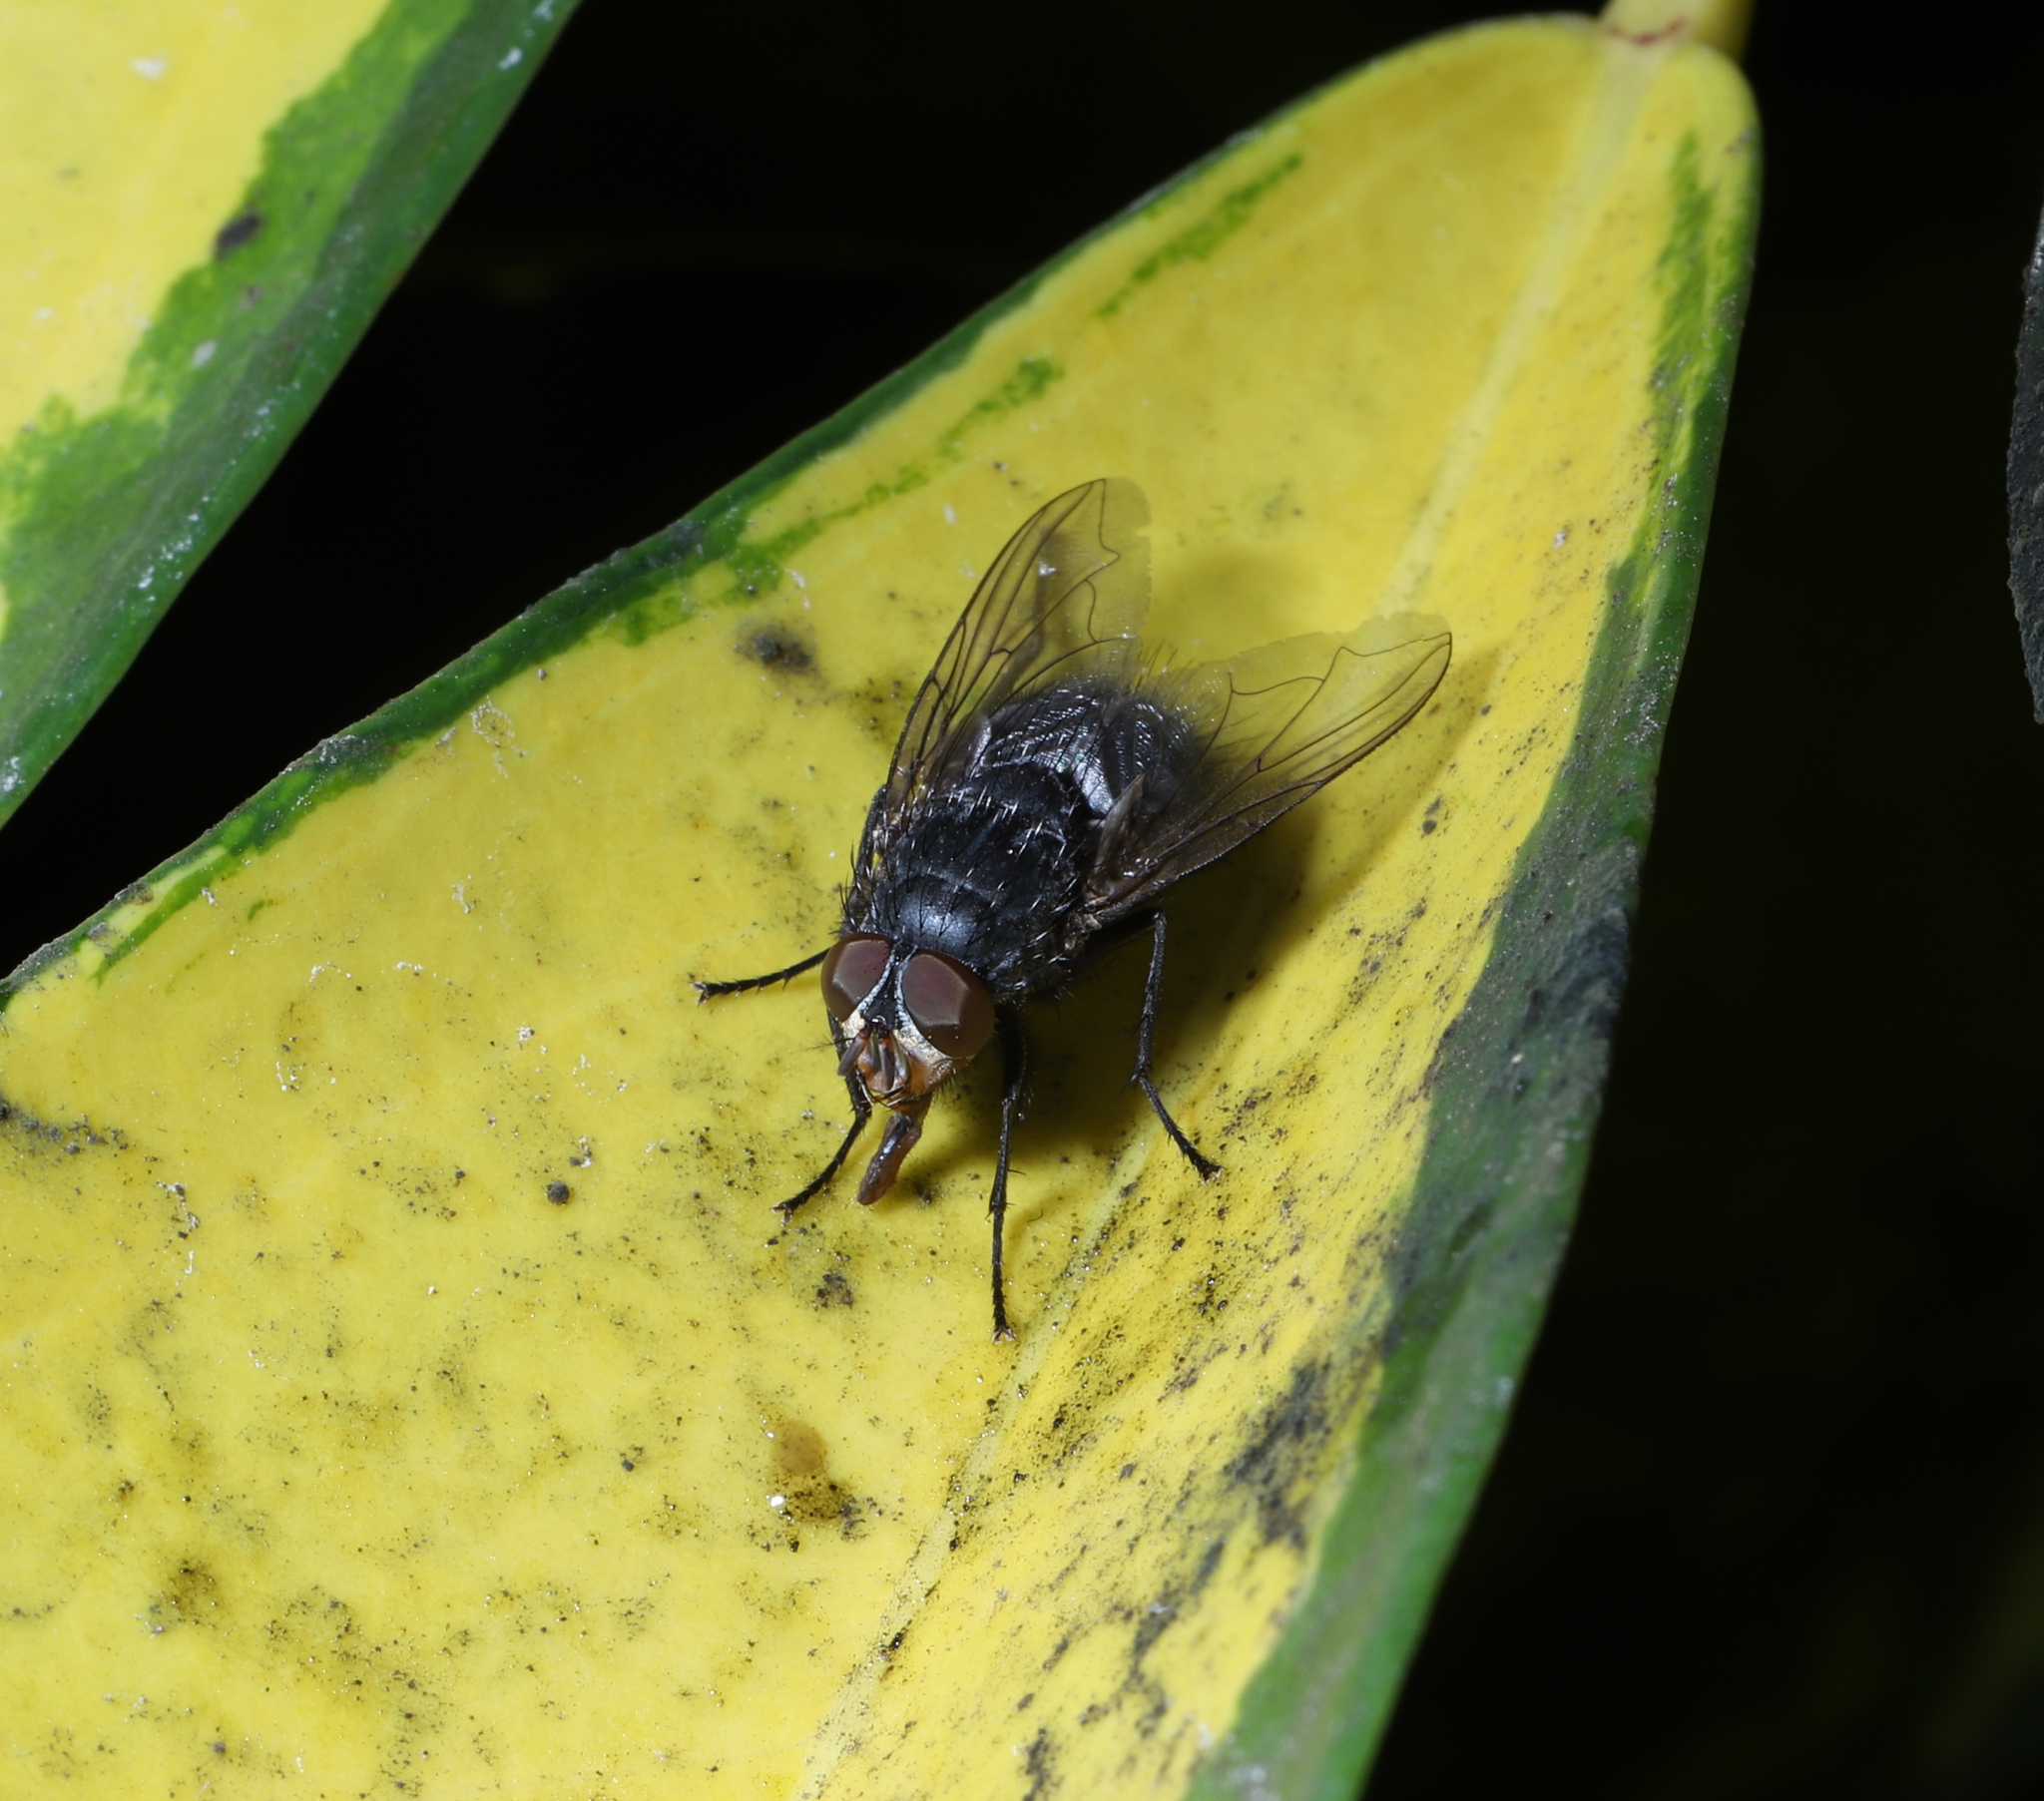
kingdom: Animalia
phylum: Arthropoda
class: Insecta
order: Diptera
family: Calliphoridae
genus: Calliphora
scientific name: Calliphora vicina
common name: Common blow flie
